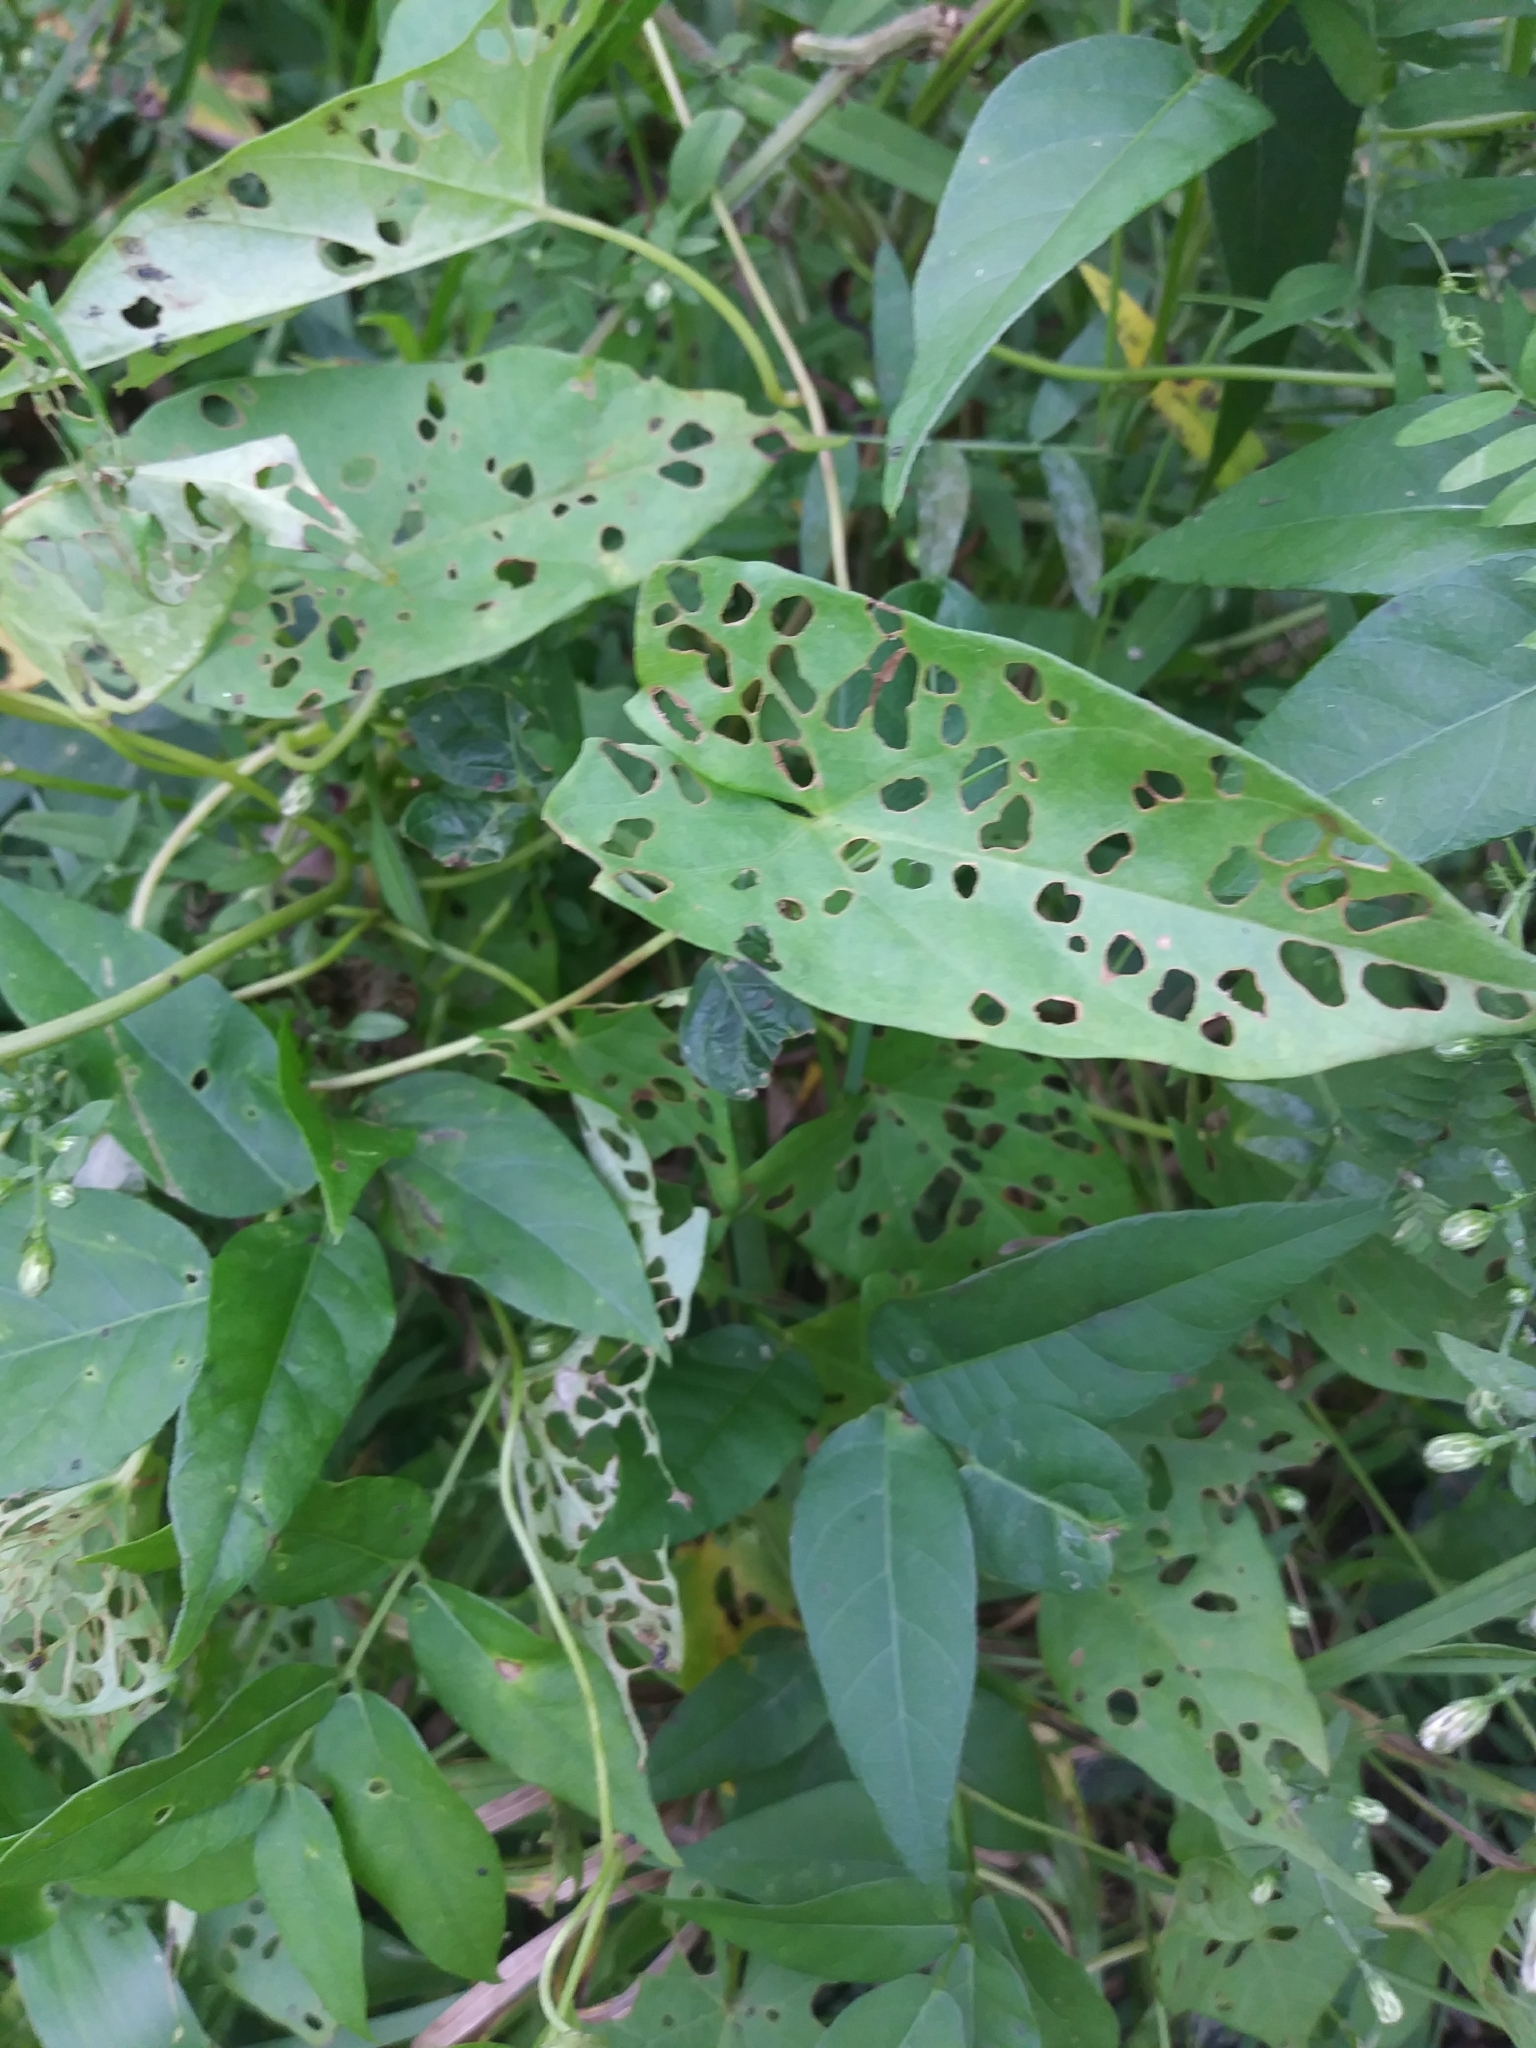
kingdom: Plantae
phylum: Tracheophyta
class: Magnoliopsida
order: Fabales
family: Fabaceae
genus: Apios
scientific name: Apios americana
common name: American potato-bean
